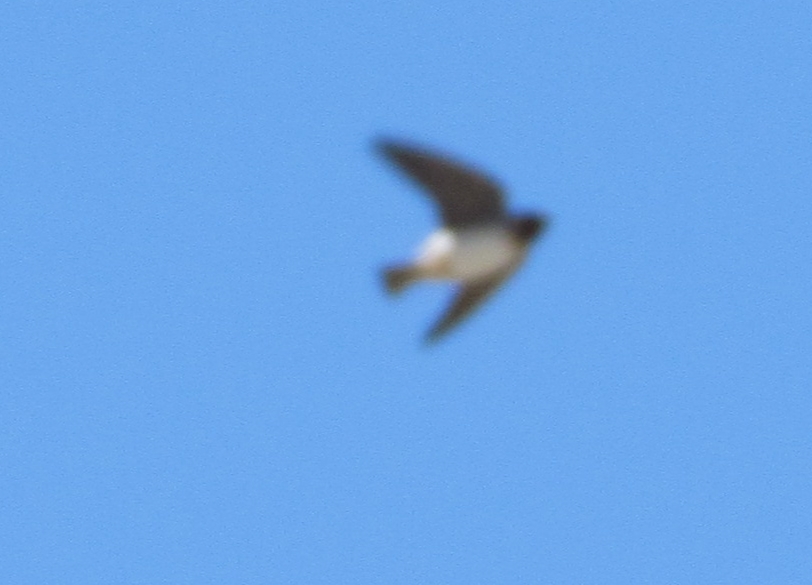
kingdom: Animalia
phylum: Chordata
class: Aves
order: Passeriformes
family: Hirundinidae
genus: Petrochelidon
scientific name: Petrochelidon pyrrhonota
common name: American cliff swallow
